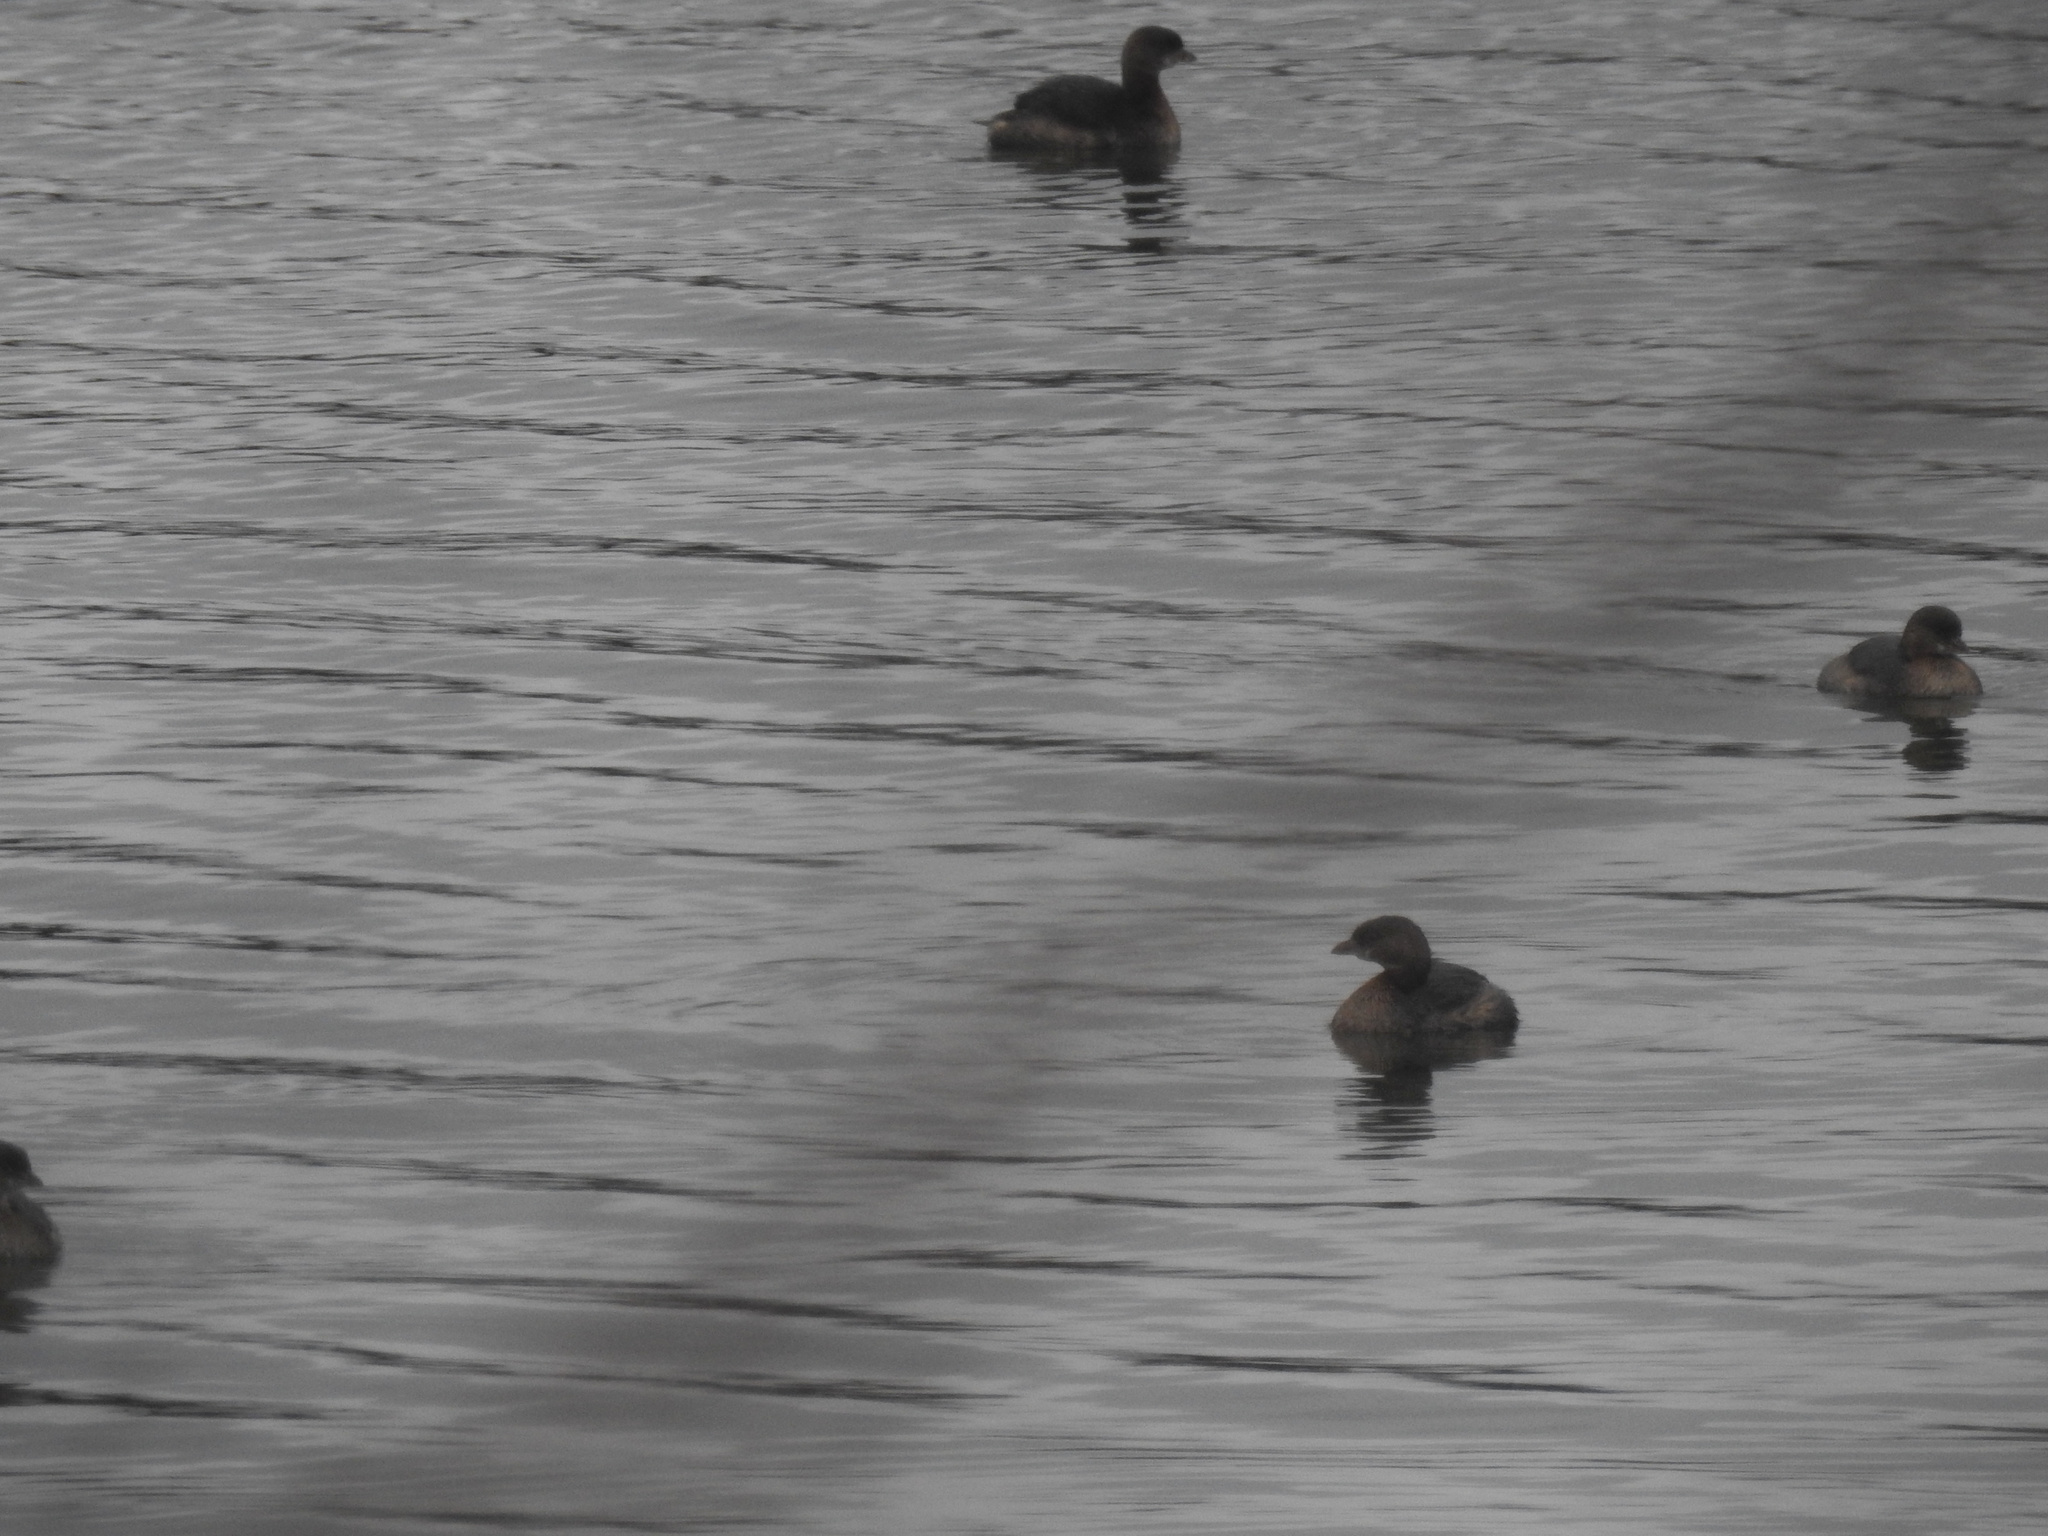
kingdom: Animalia
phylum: Chordata
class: Aves
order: Podicipediformes
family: Podicipedidae
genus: Podilymbus
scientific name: Podilymbus podiceps
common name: Pied-billed grebe
